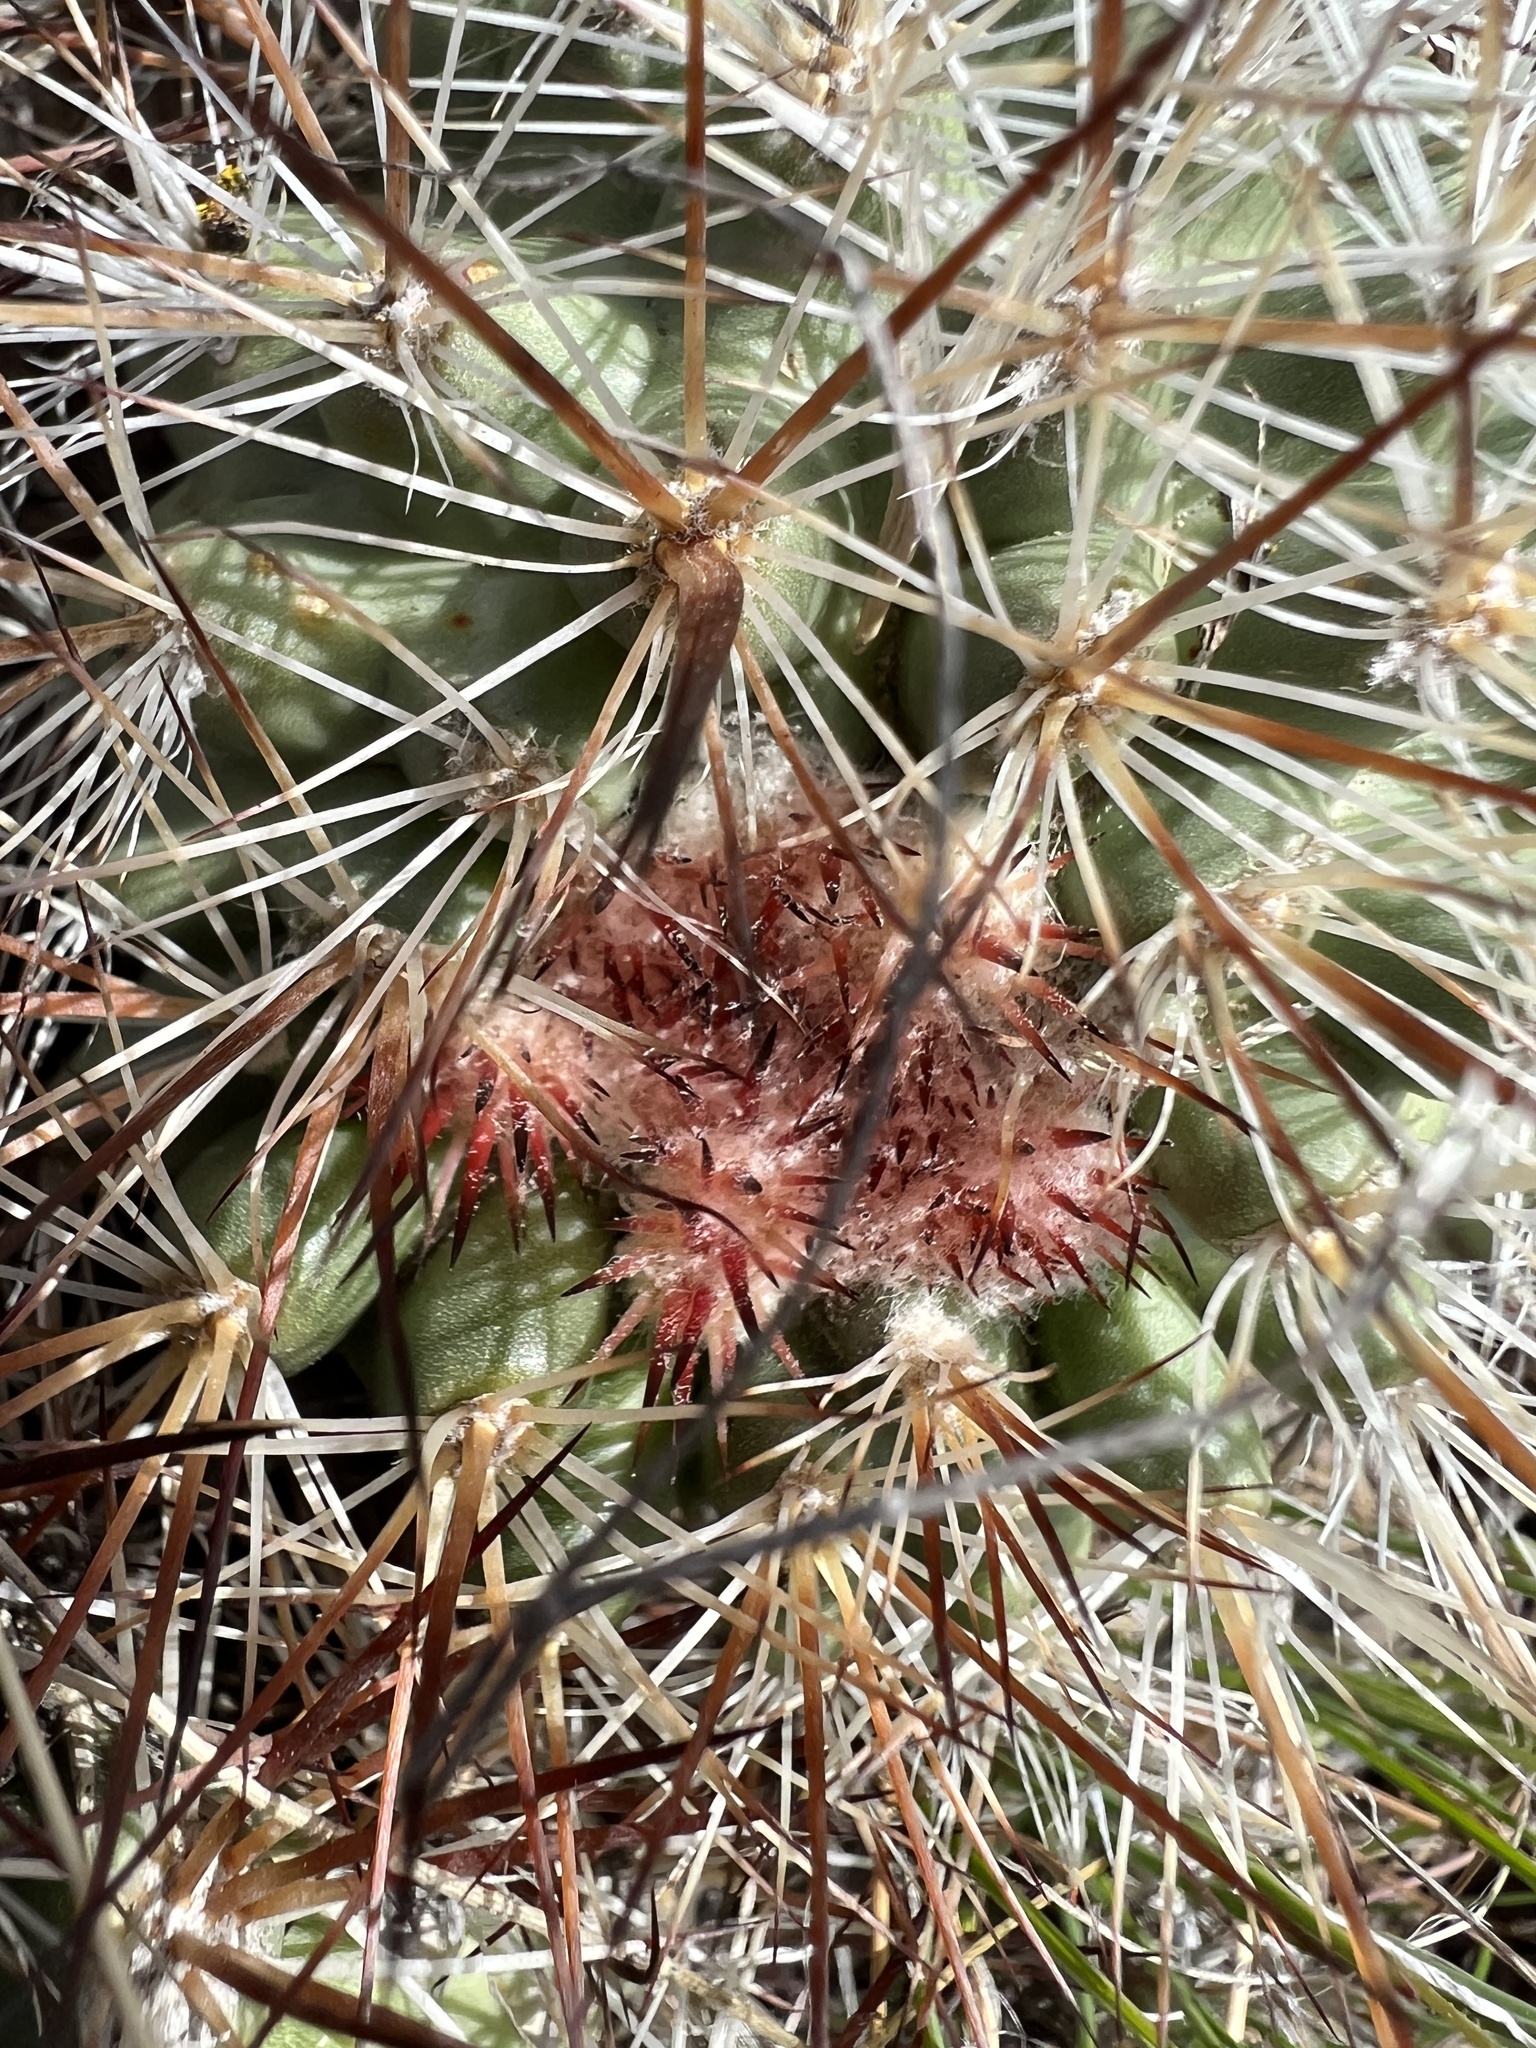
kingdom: Plantae
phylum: Tracheophyta
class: Magnoliopsida
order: Caryophyllales
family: Cactaceae
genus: Pediocactus
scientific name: Pediocactus nigrispinus
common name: Simpson's hedgehog cactus
